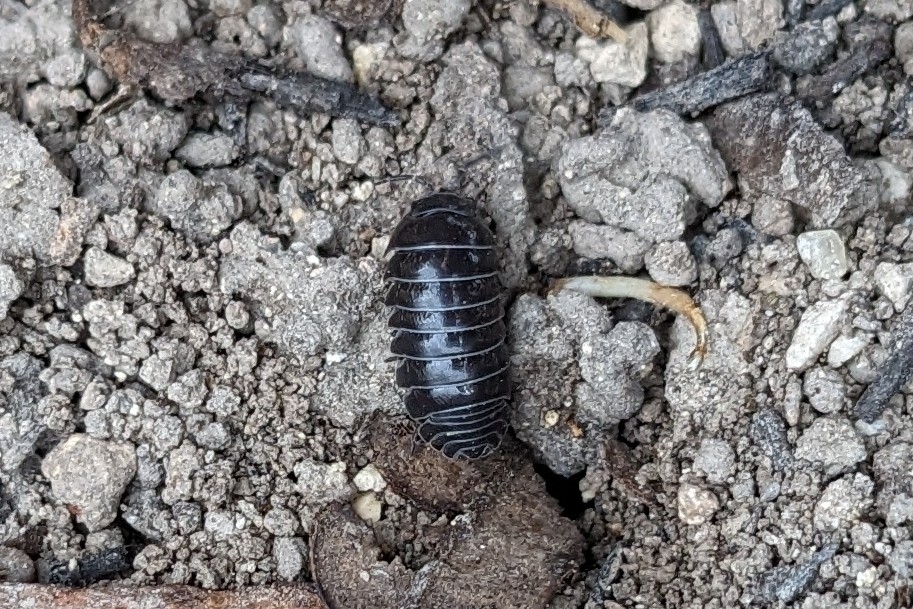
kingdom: Animalia
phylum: Arthropoda
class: Malacostraca
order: Isopoda
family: Armadillidiidae
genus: Armadillidium
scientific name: Armadillidium vulgare
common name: Common pill woodlouse
